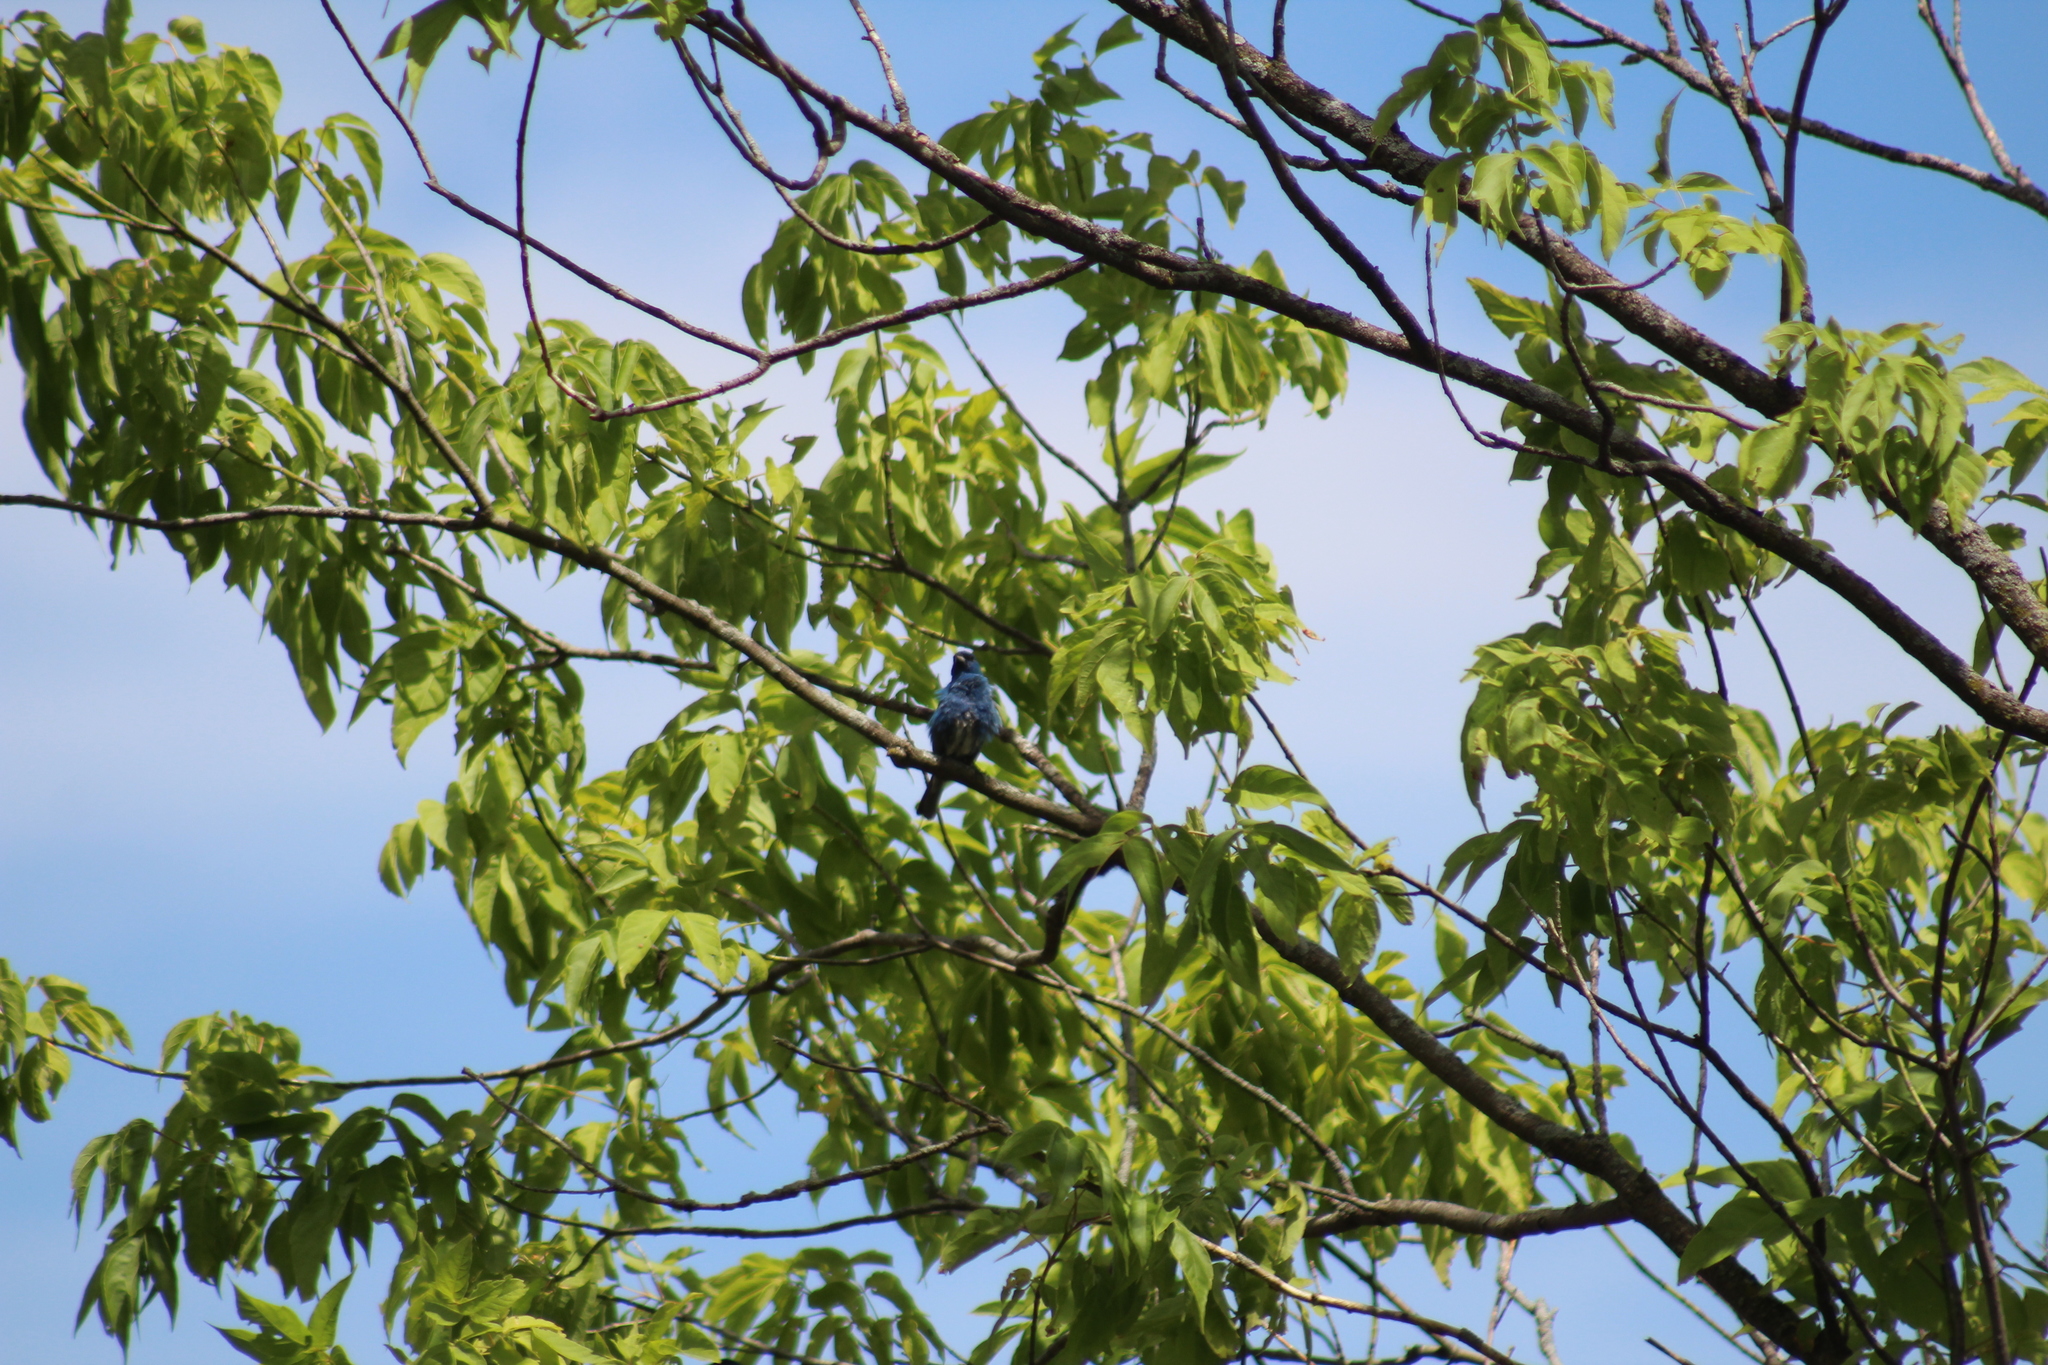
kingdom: Animalia
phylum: Chordata
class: Aves
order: Passeriformes
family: Cardinalidae
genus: Passerina
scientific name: Passerina cyanea
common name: Indigo bunting
